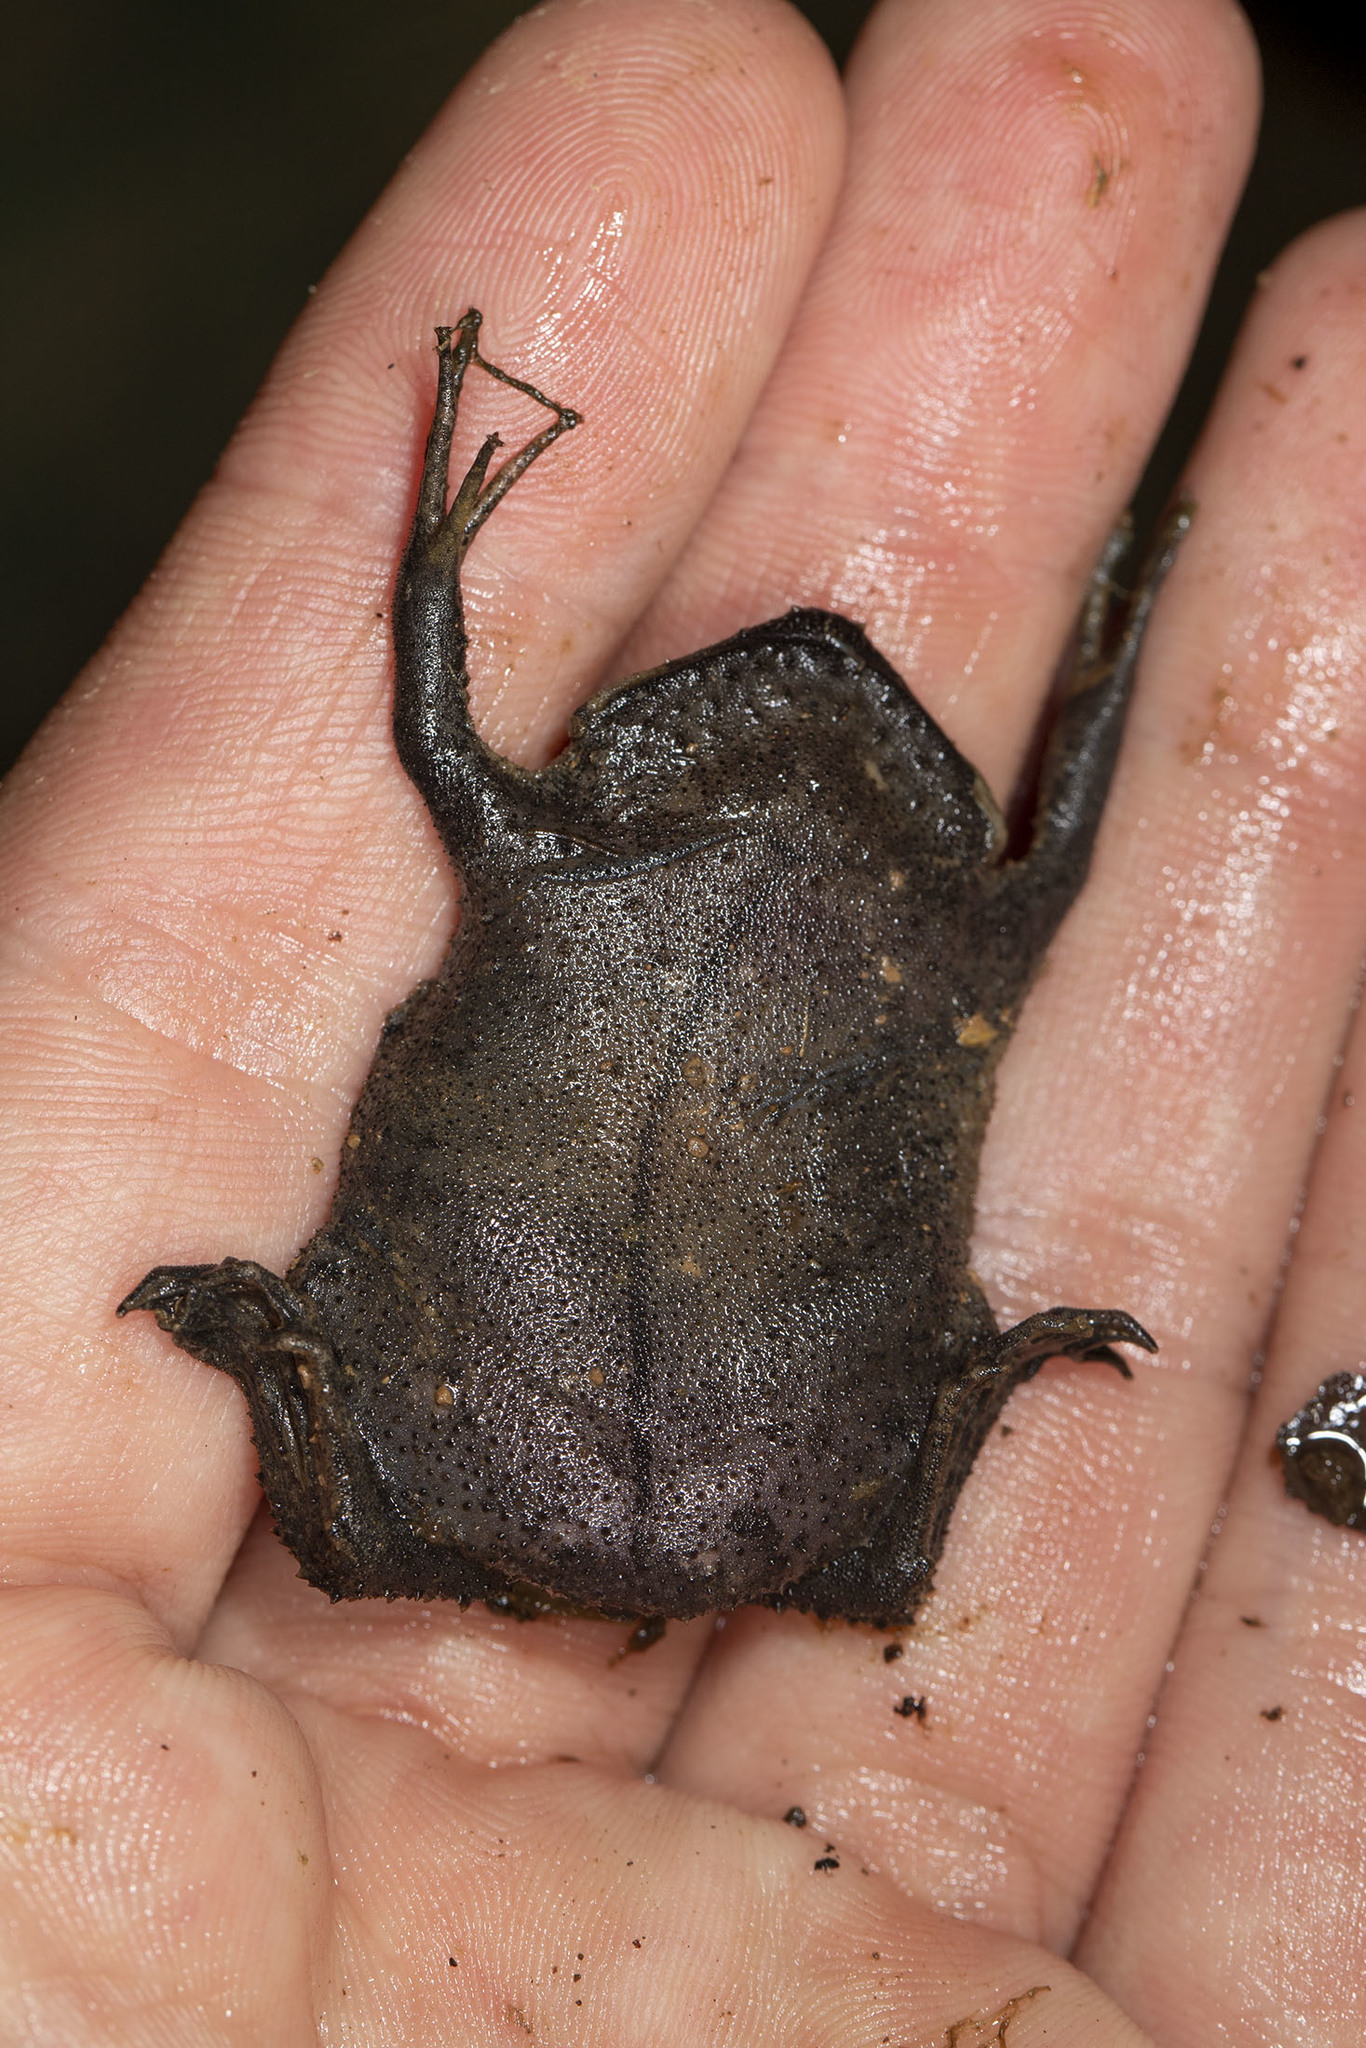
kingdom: Animalia
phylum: Chordata
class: Amphibia
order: Anura
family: Pipidae
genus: Pipa
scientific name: Pipa pipa
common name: Surinam toad
